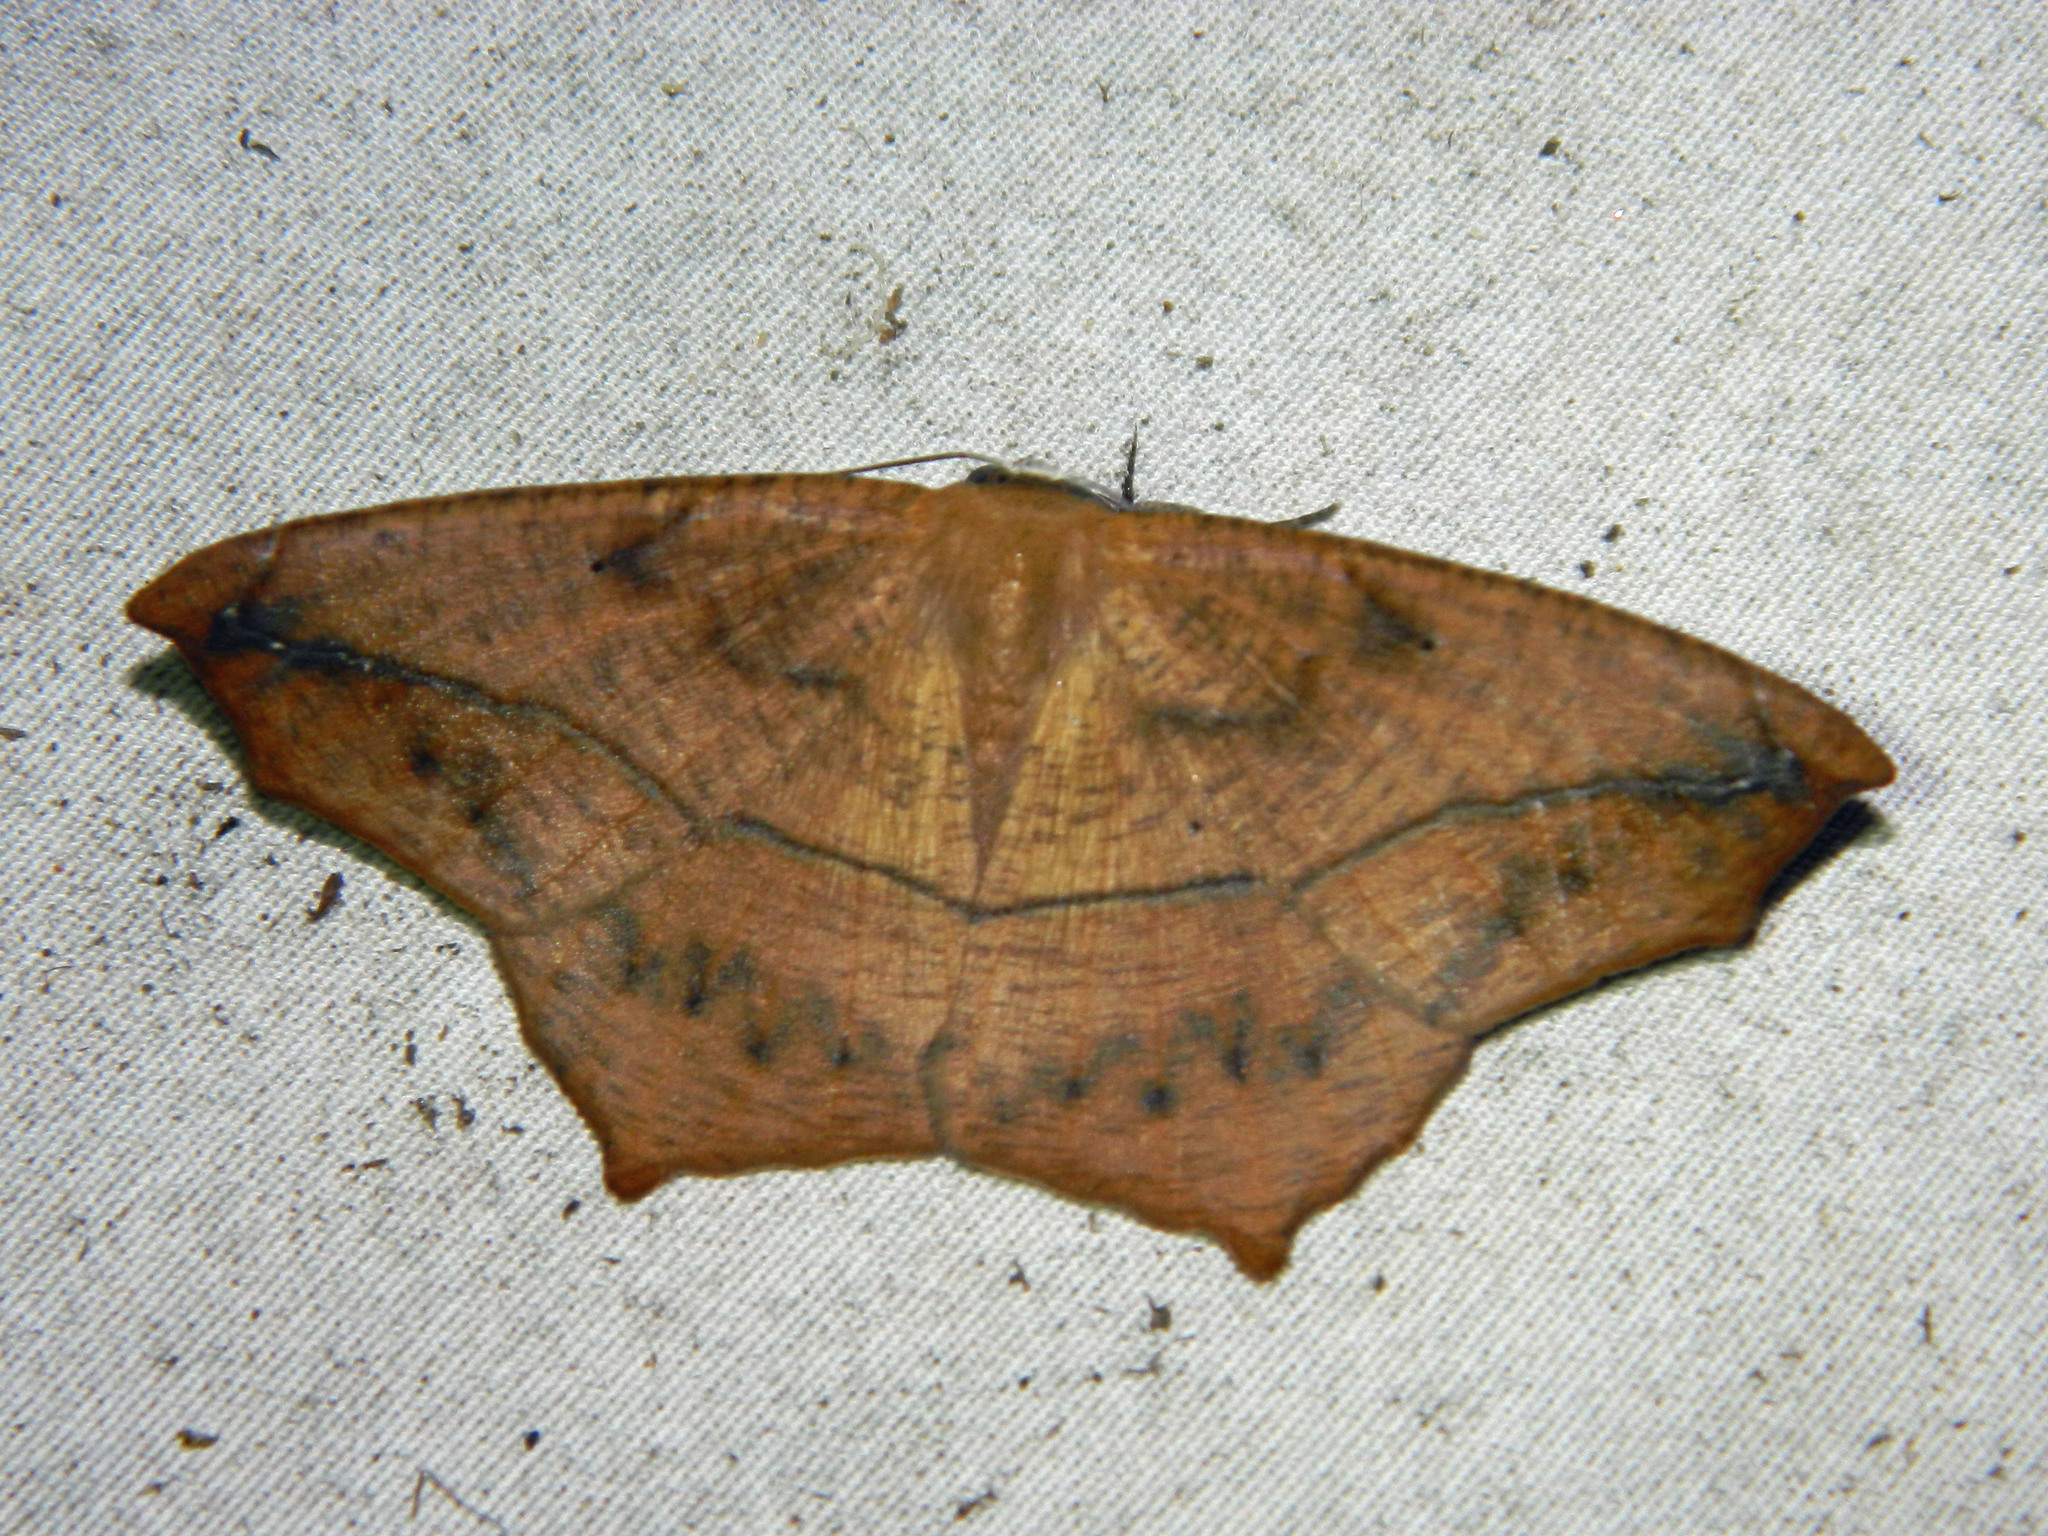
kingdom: Animalia
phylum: Arthropoda
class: Insecta
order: Lepidoptera
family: Geometridae
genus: Prochoerodes
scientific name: Prochoerodes lineola
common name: Large maple spanworm
